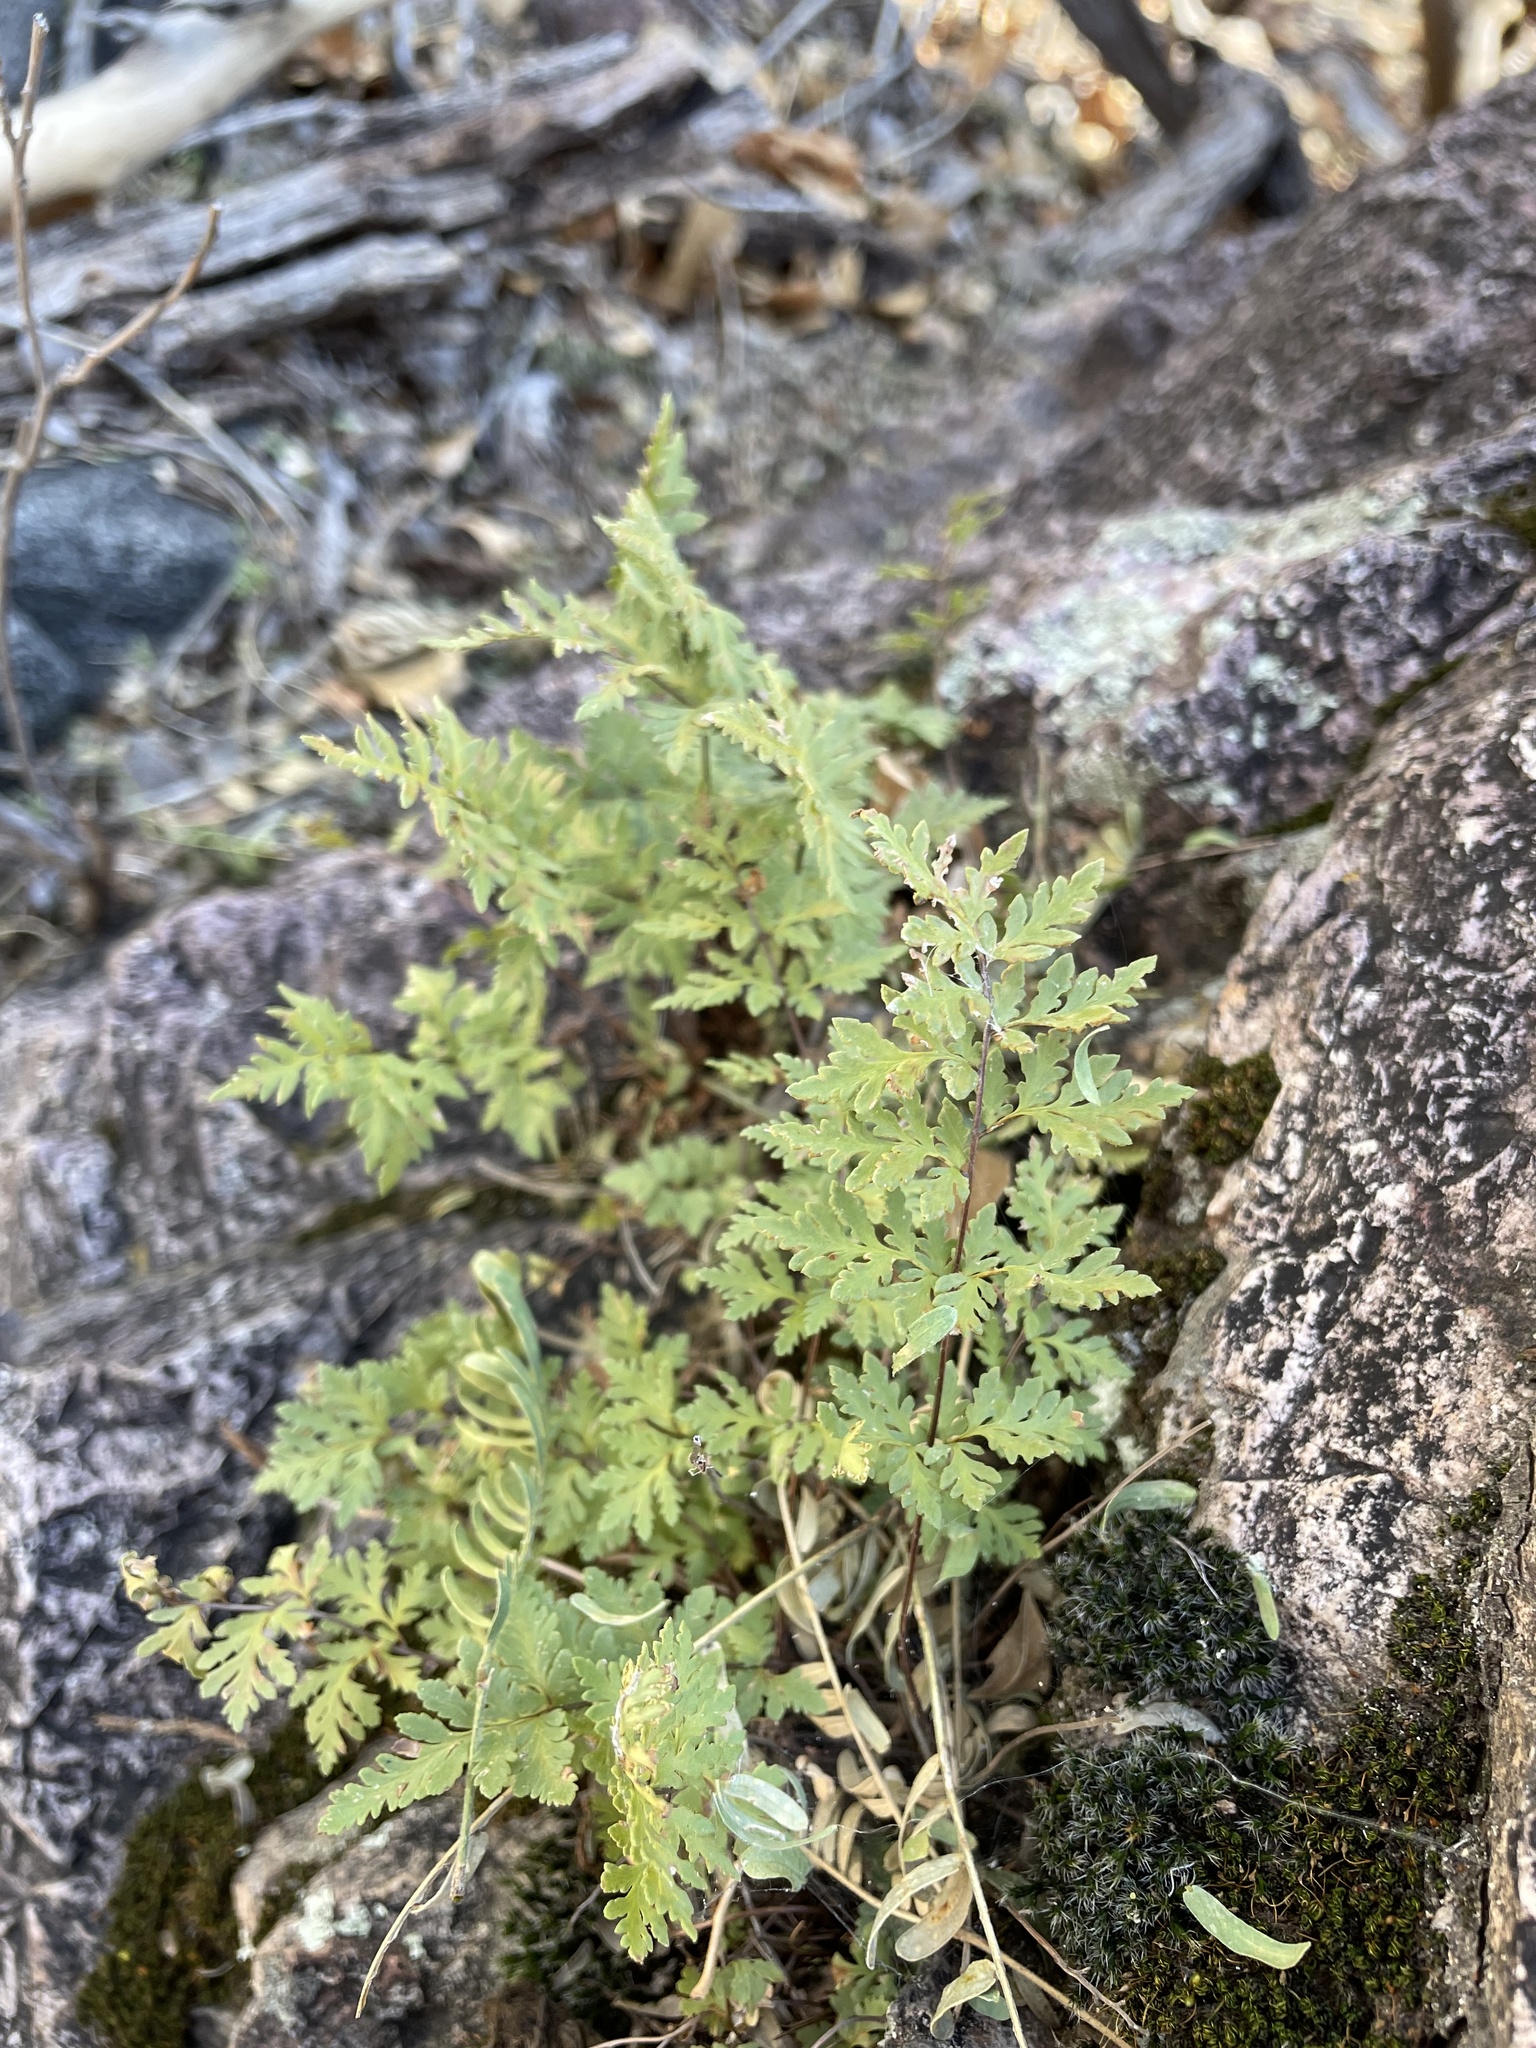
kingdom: Plantae
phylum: Tracheophyta
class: Polypodiopsida
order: Polypodiales
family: Pteridaceae
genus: Myriopteris
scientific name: Myriopteris wrightii
